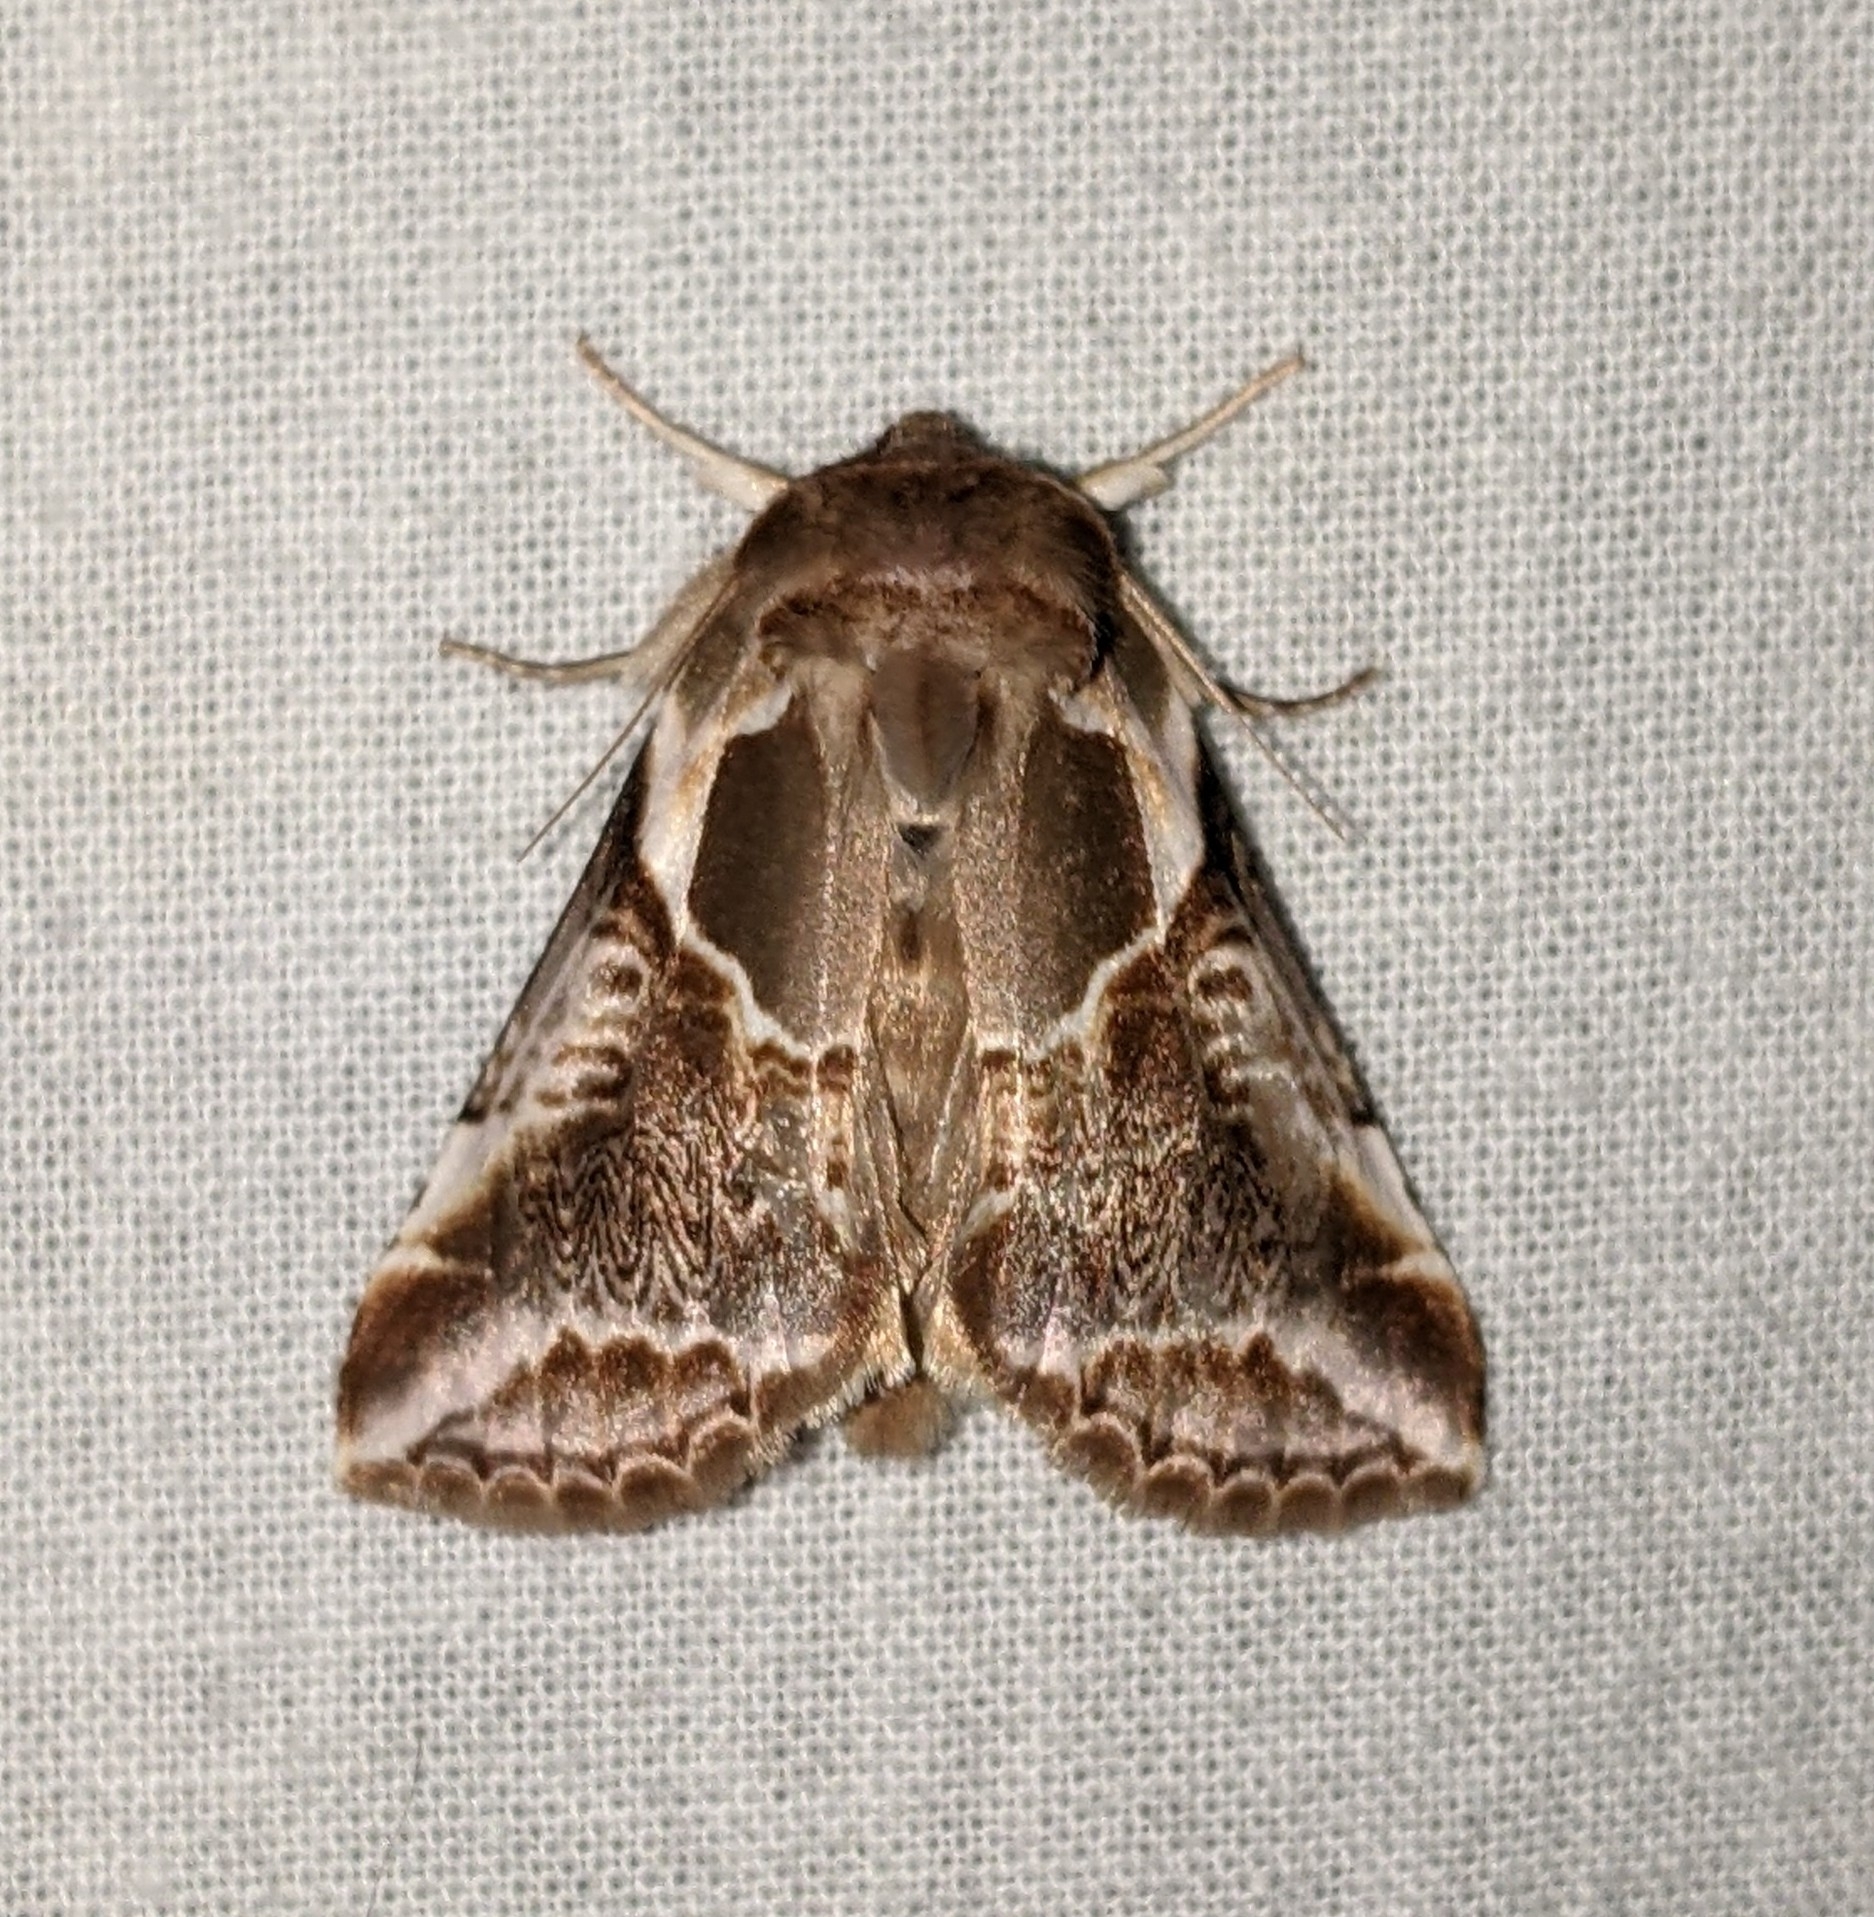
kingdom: Animalia
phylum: Arthropoda
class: Insecta
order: Lepidoptera
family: Drepanidae
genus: Habrosyne
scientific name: Habrosyne scripta
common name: Lettered habrosyne moth
